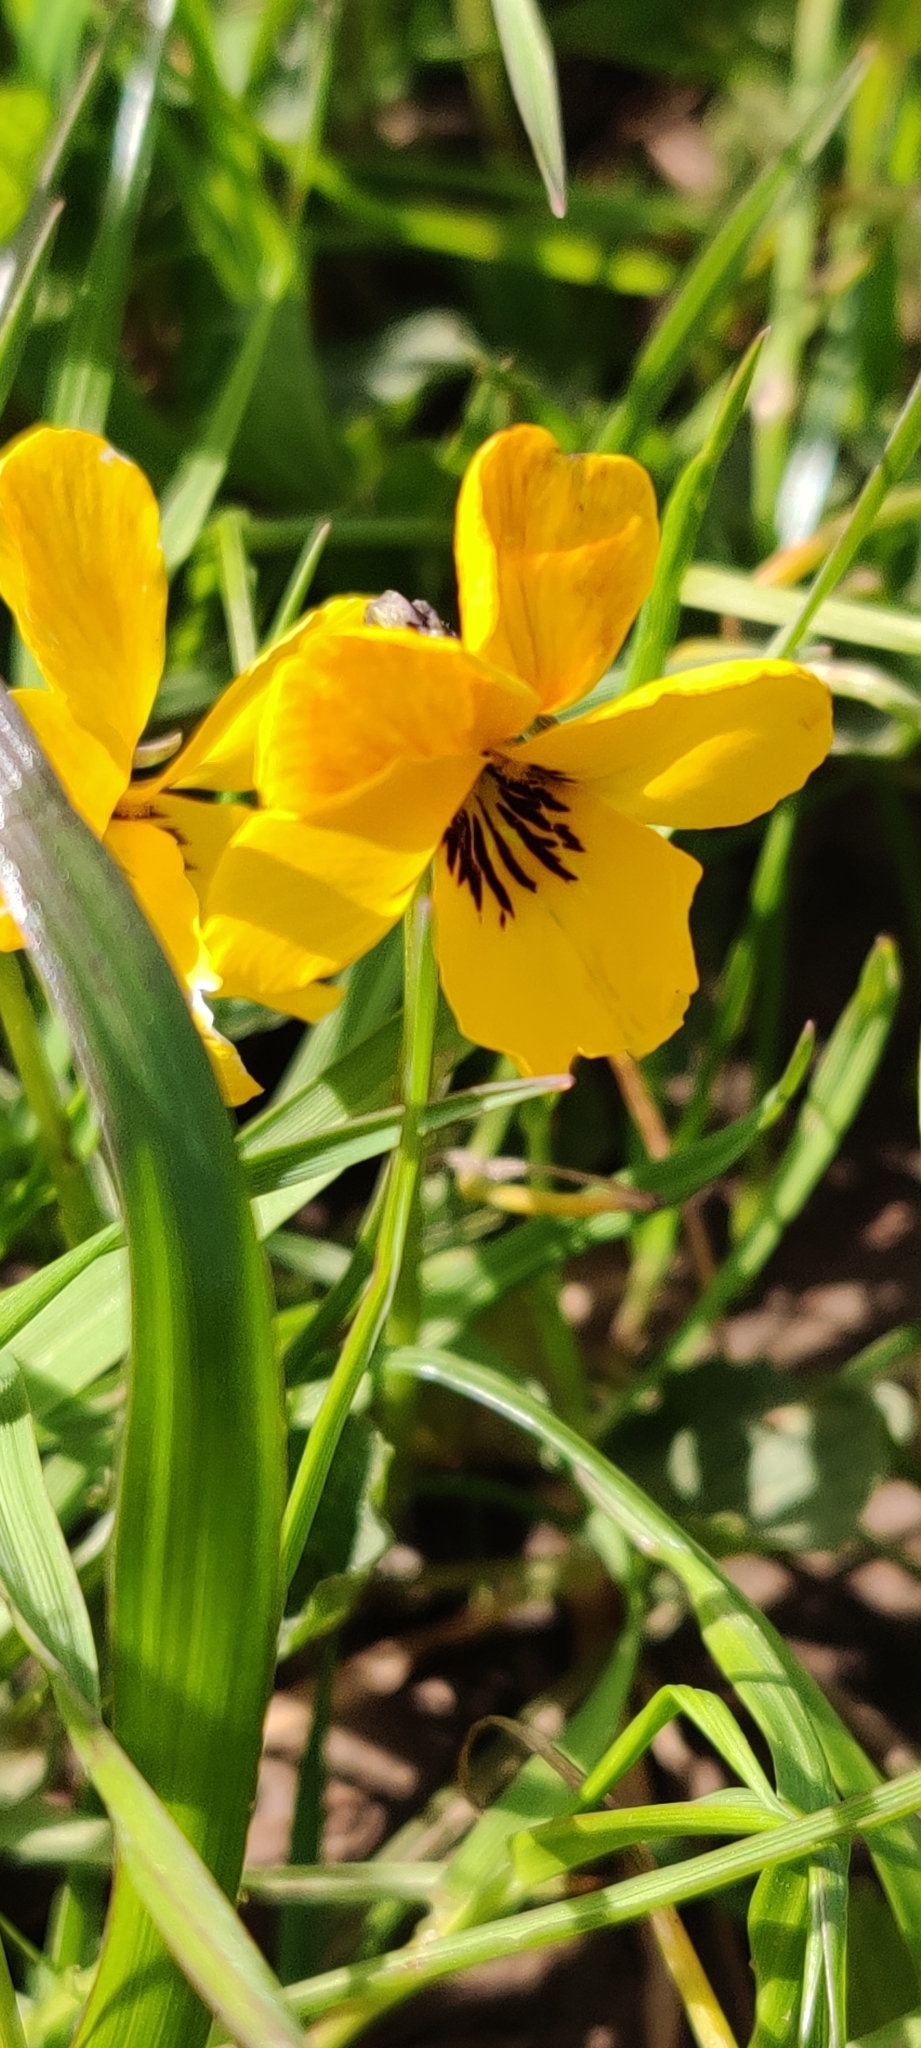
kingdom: Plantae
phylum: Tracheophyta
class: Magnoliopsida
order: Malpighiales
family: Violaceae
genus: Viola
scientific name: Viola pedunculata
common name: California golden violet
